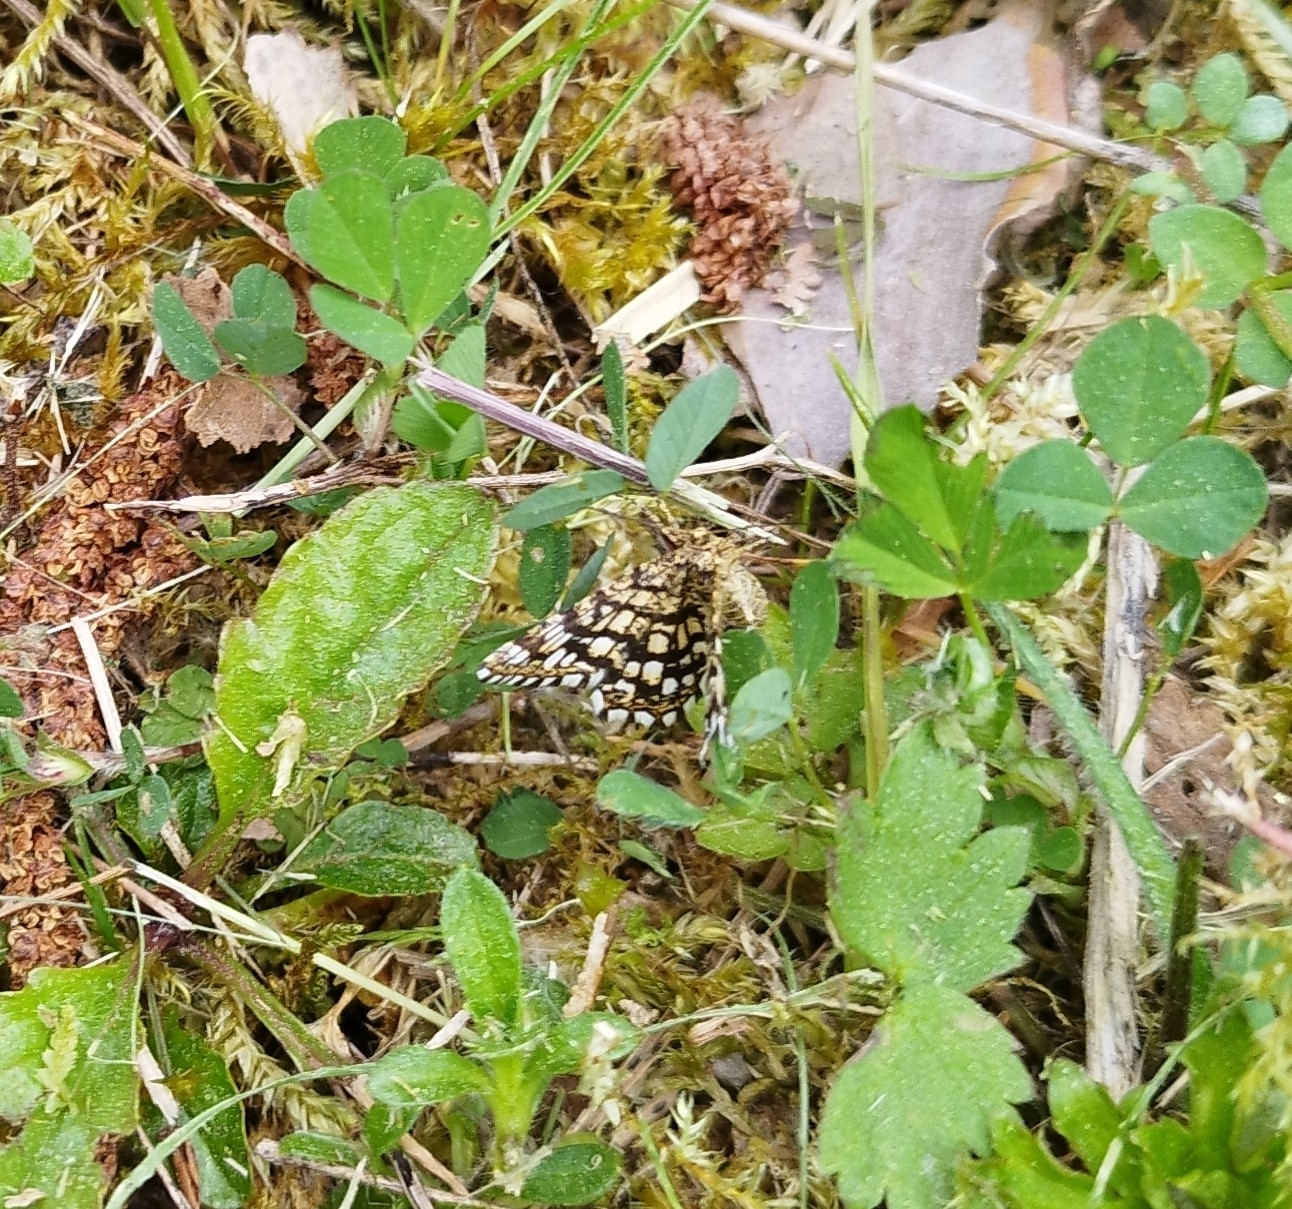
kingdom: Animalia
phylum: Arthropoda
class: Insecta
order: Lepidoptera
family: Geometridae
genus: Chiasmia
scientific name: Chiasmia clathrata
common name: Latticed heath
